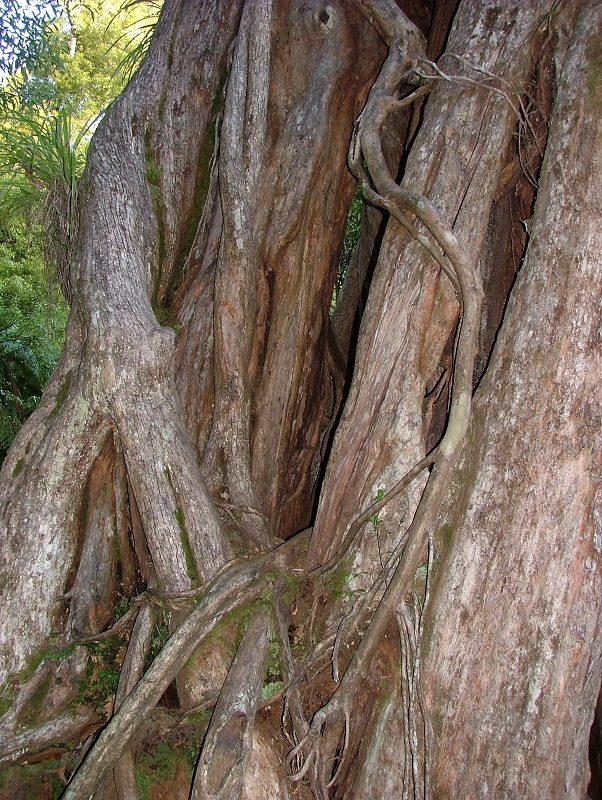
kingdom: Plantae
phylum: Tracheophyta
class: Magnoliopsida
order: Myrtales
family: Myrtaceae
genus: Metrosideros
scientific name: Metrosideros robusta
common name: Northern rata
